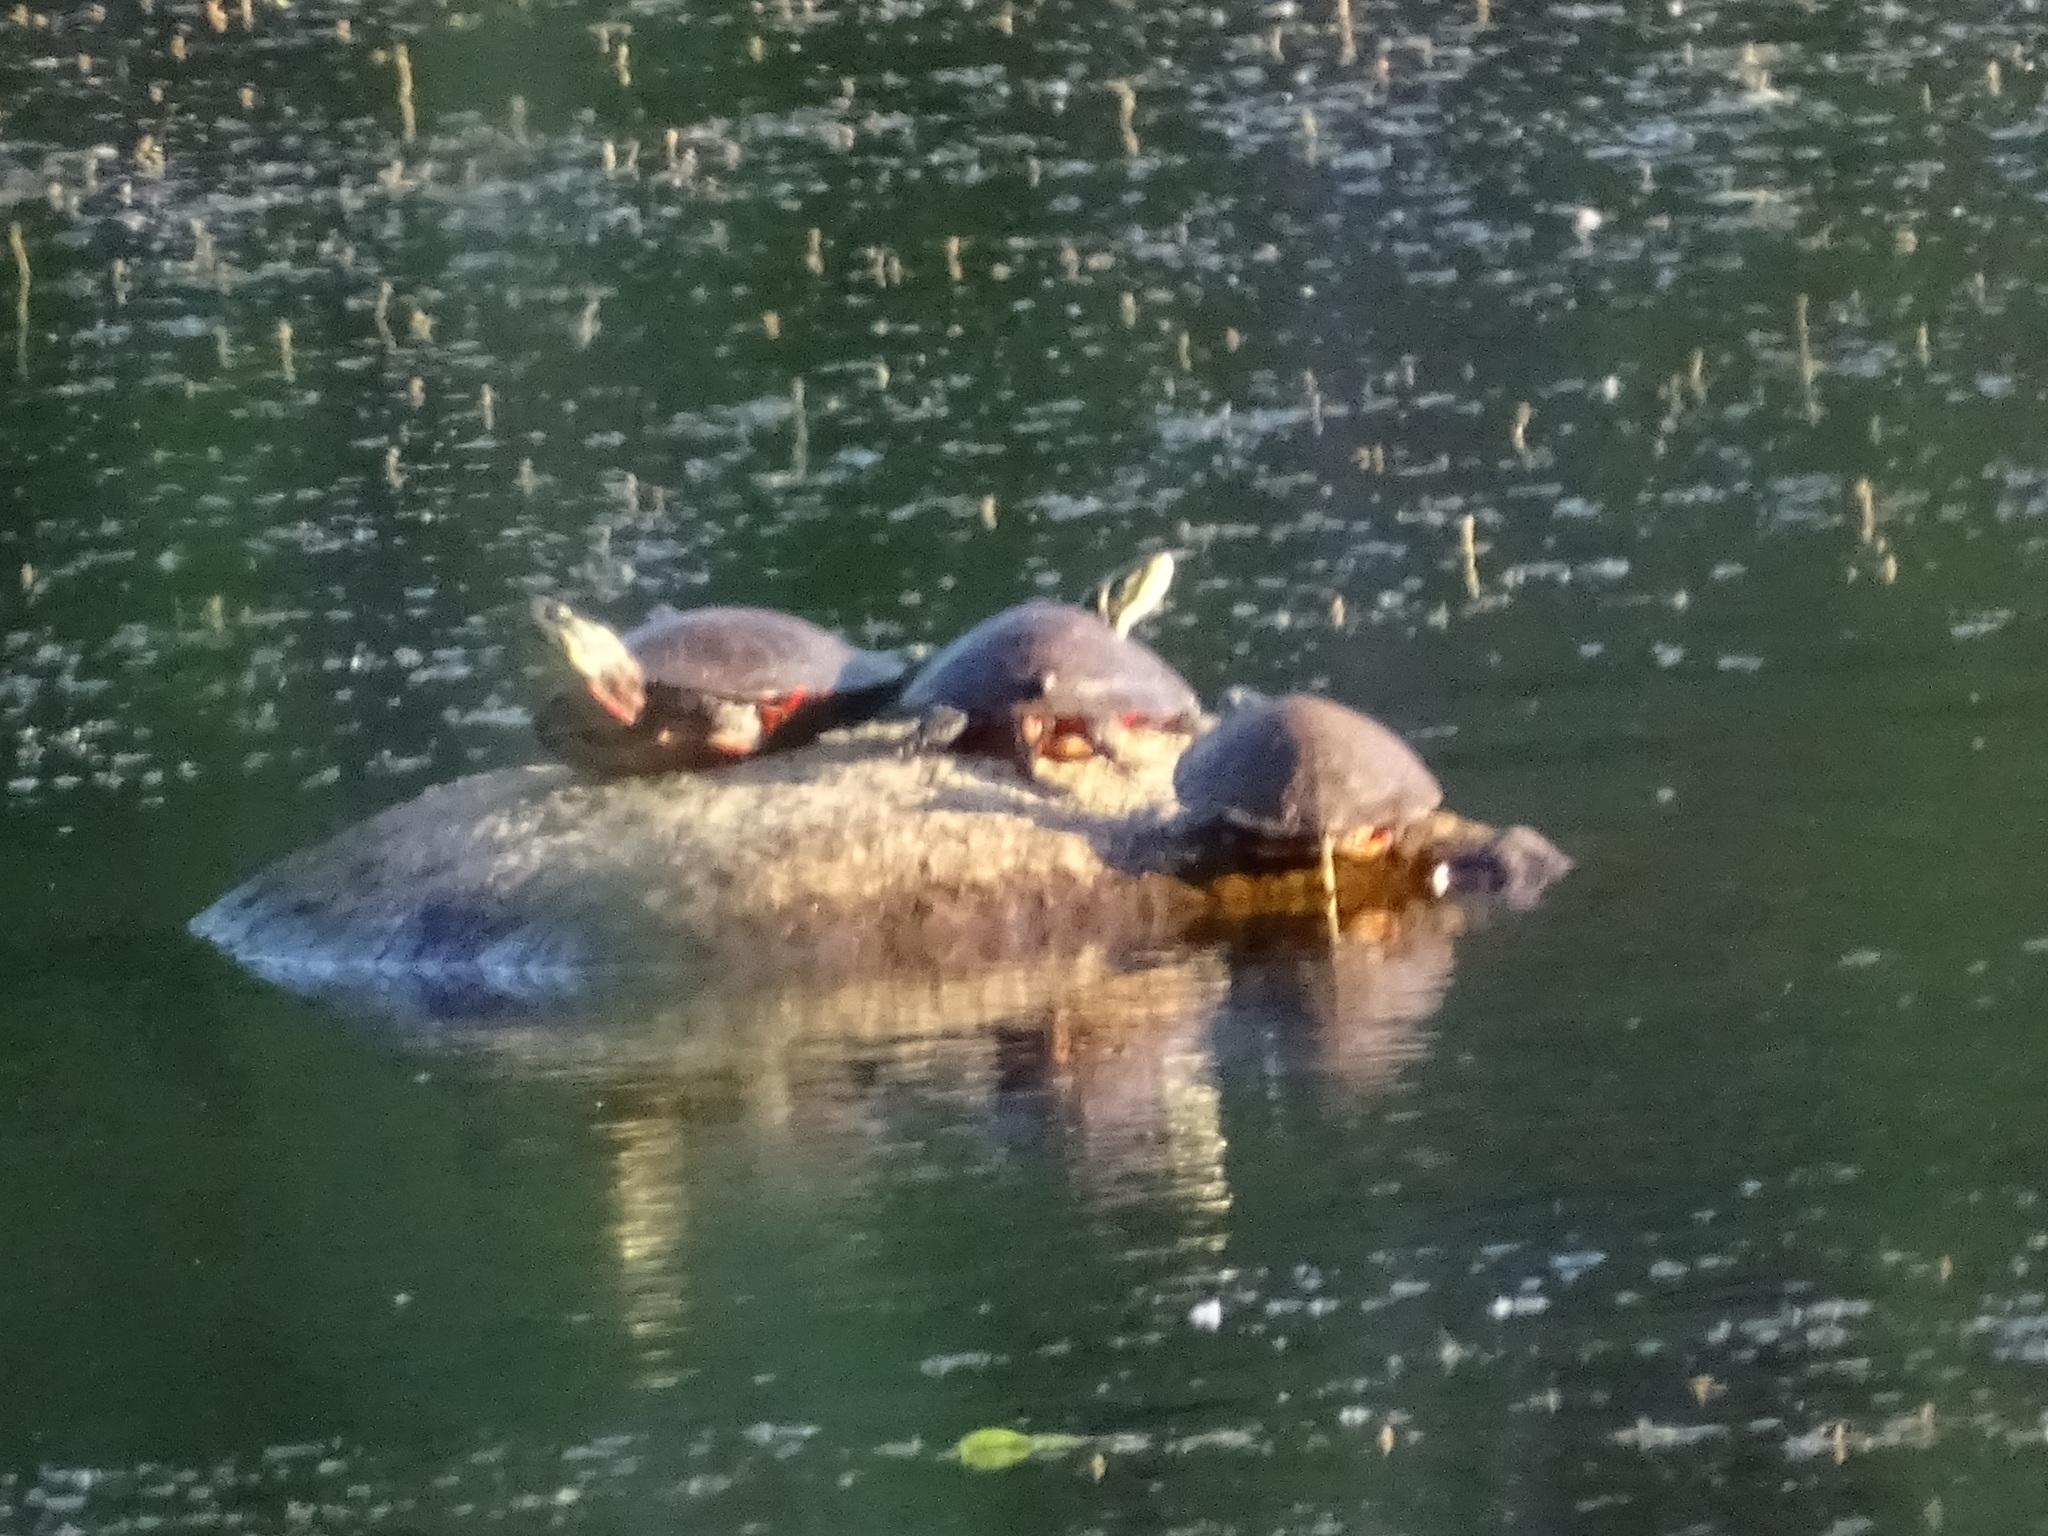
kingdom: Animalia
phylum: Chordata
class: Testudines
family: Emydidae
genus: Chrysemys
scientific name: Chrysemys picta
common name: Painted turtle
